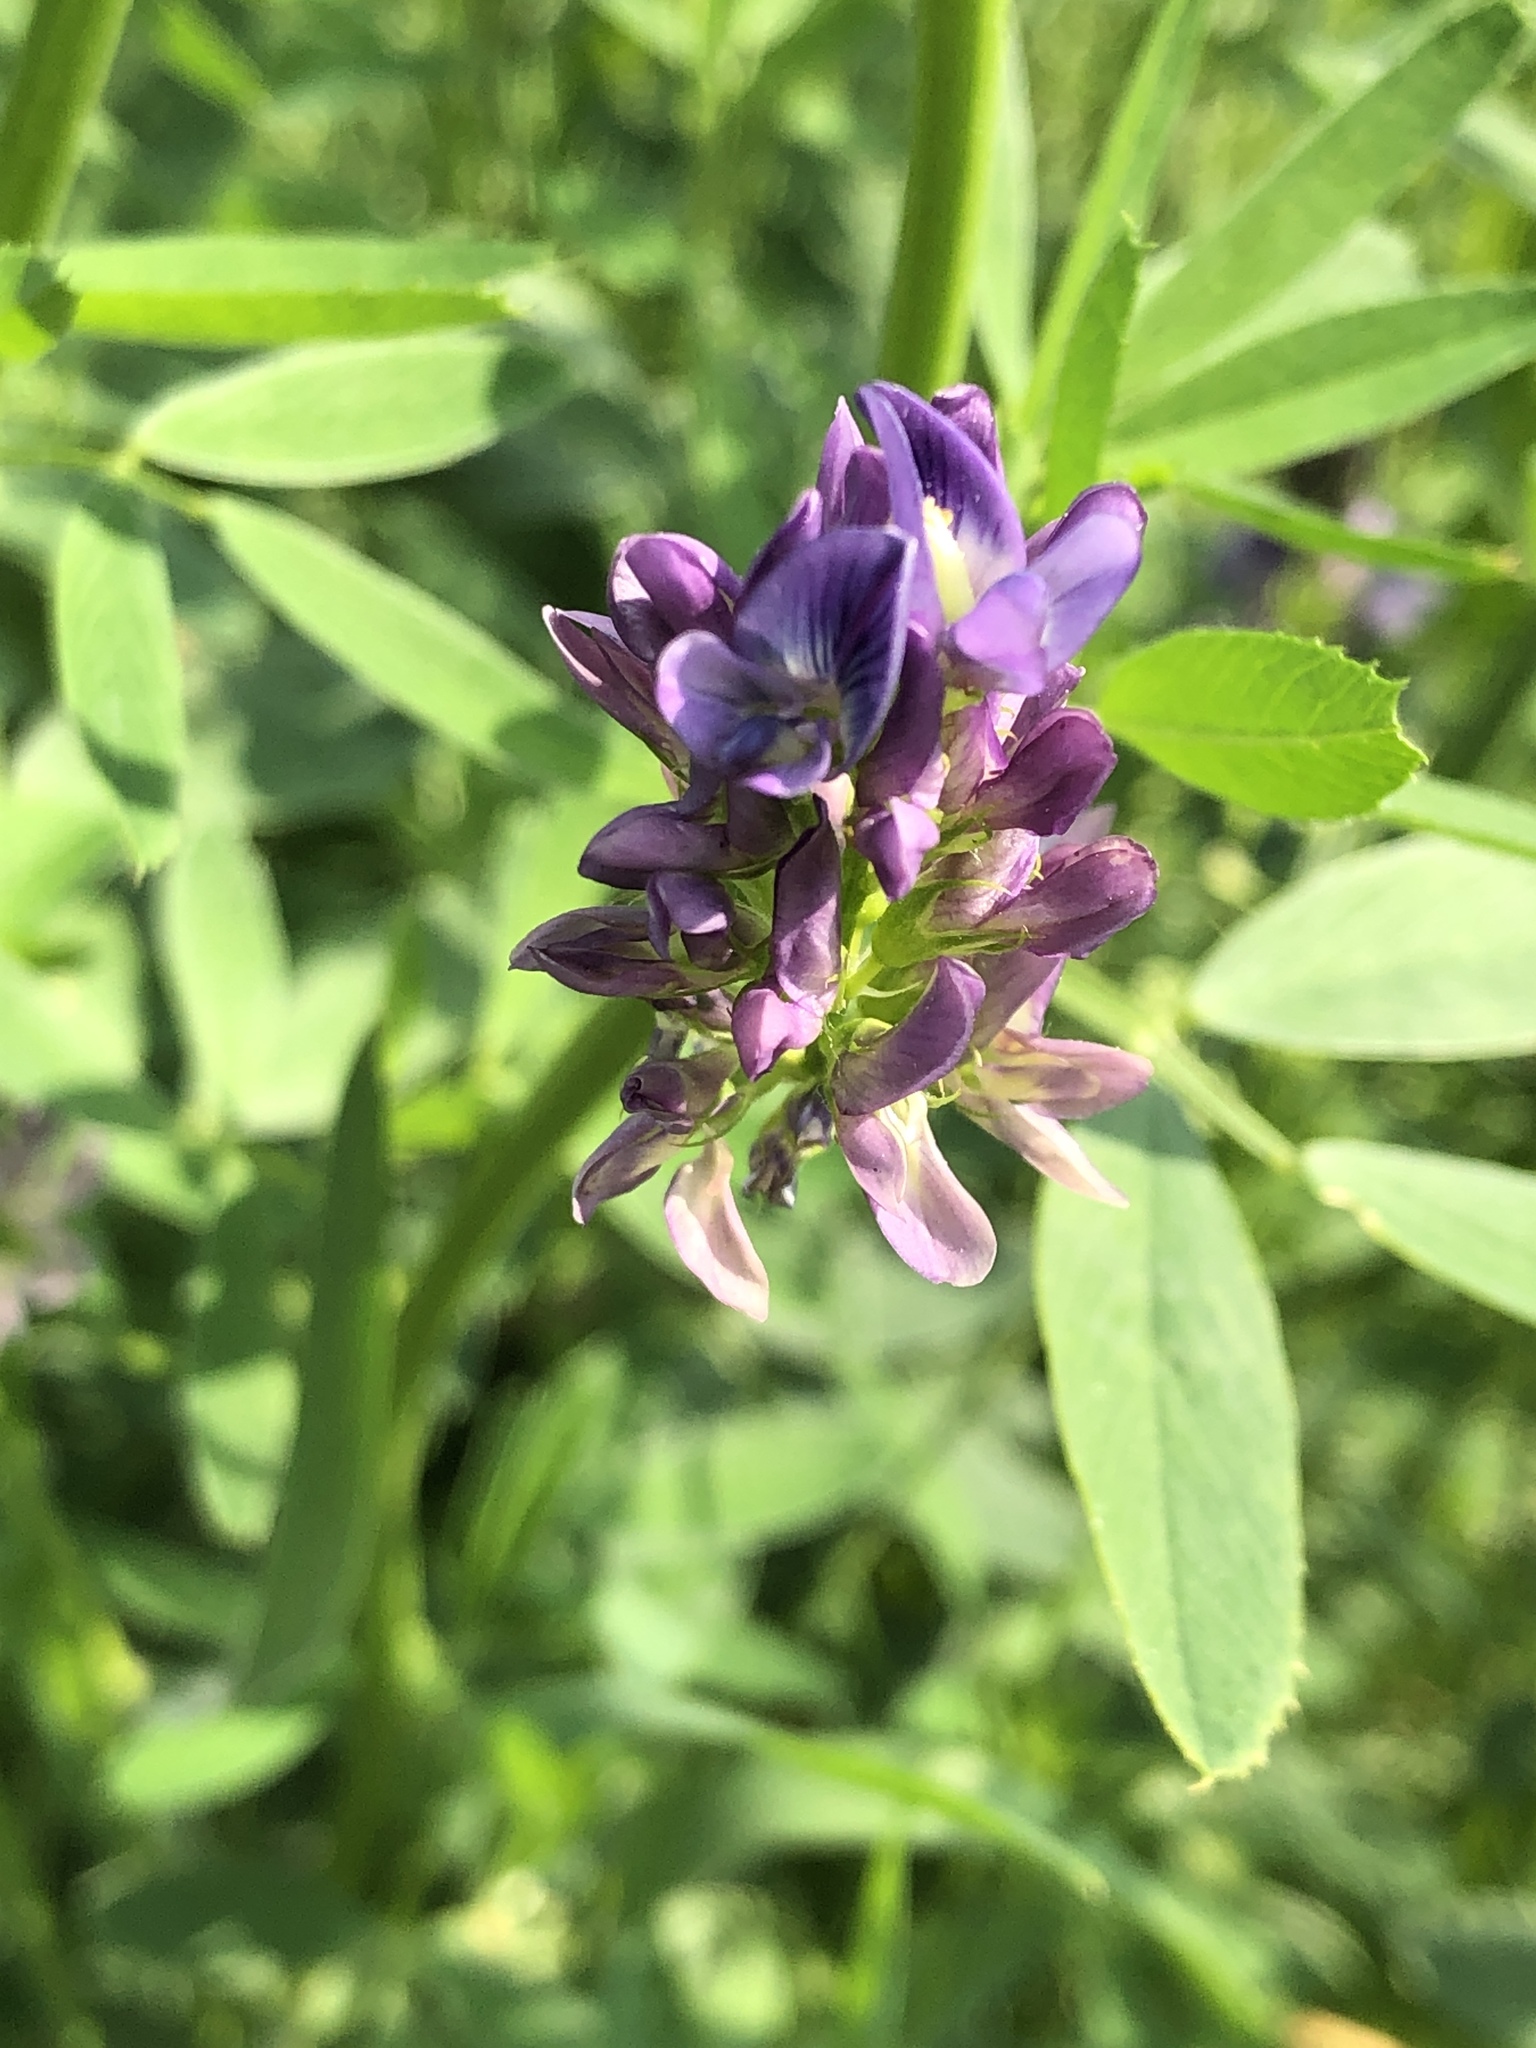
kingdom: Plantae
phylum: Tracheophyta
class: Magnoliopsida
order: Fabales
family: Fabaceae
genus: Medicago
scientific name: Medicago varia
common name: Sand lucerne
